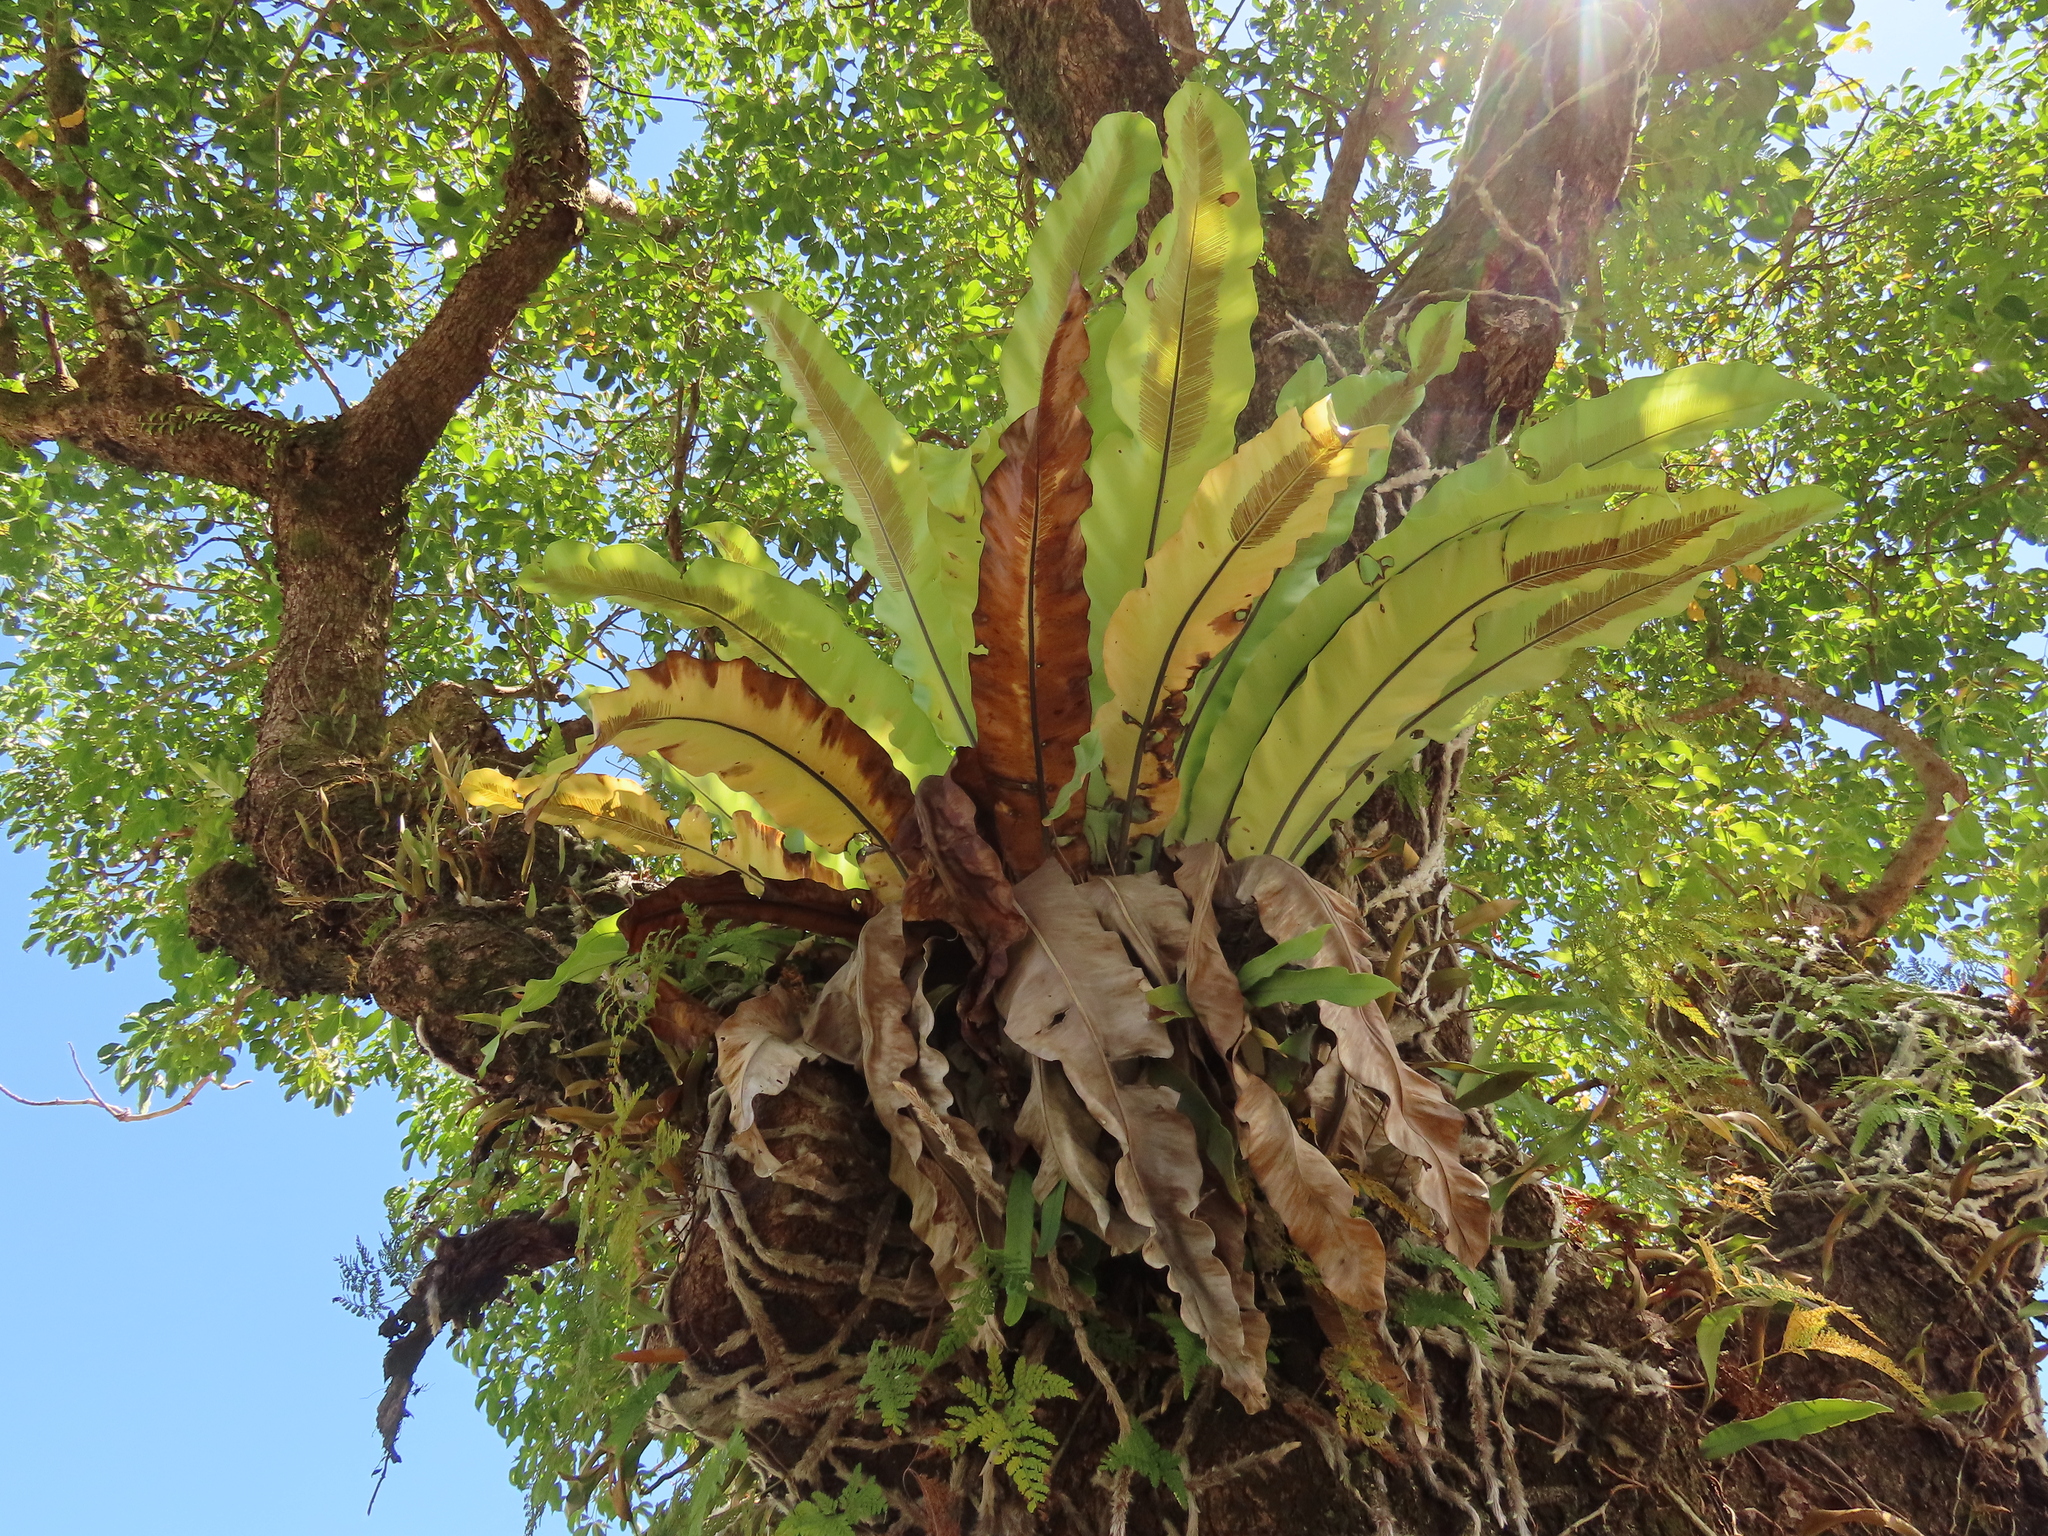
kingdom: Plantae
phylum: Tracheophyta
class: Polypodiopsida
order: Polypodiales
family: Aspleniaceae
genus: Asplenium
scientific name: Asplenium setoi
